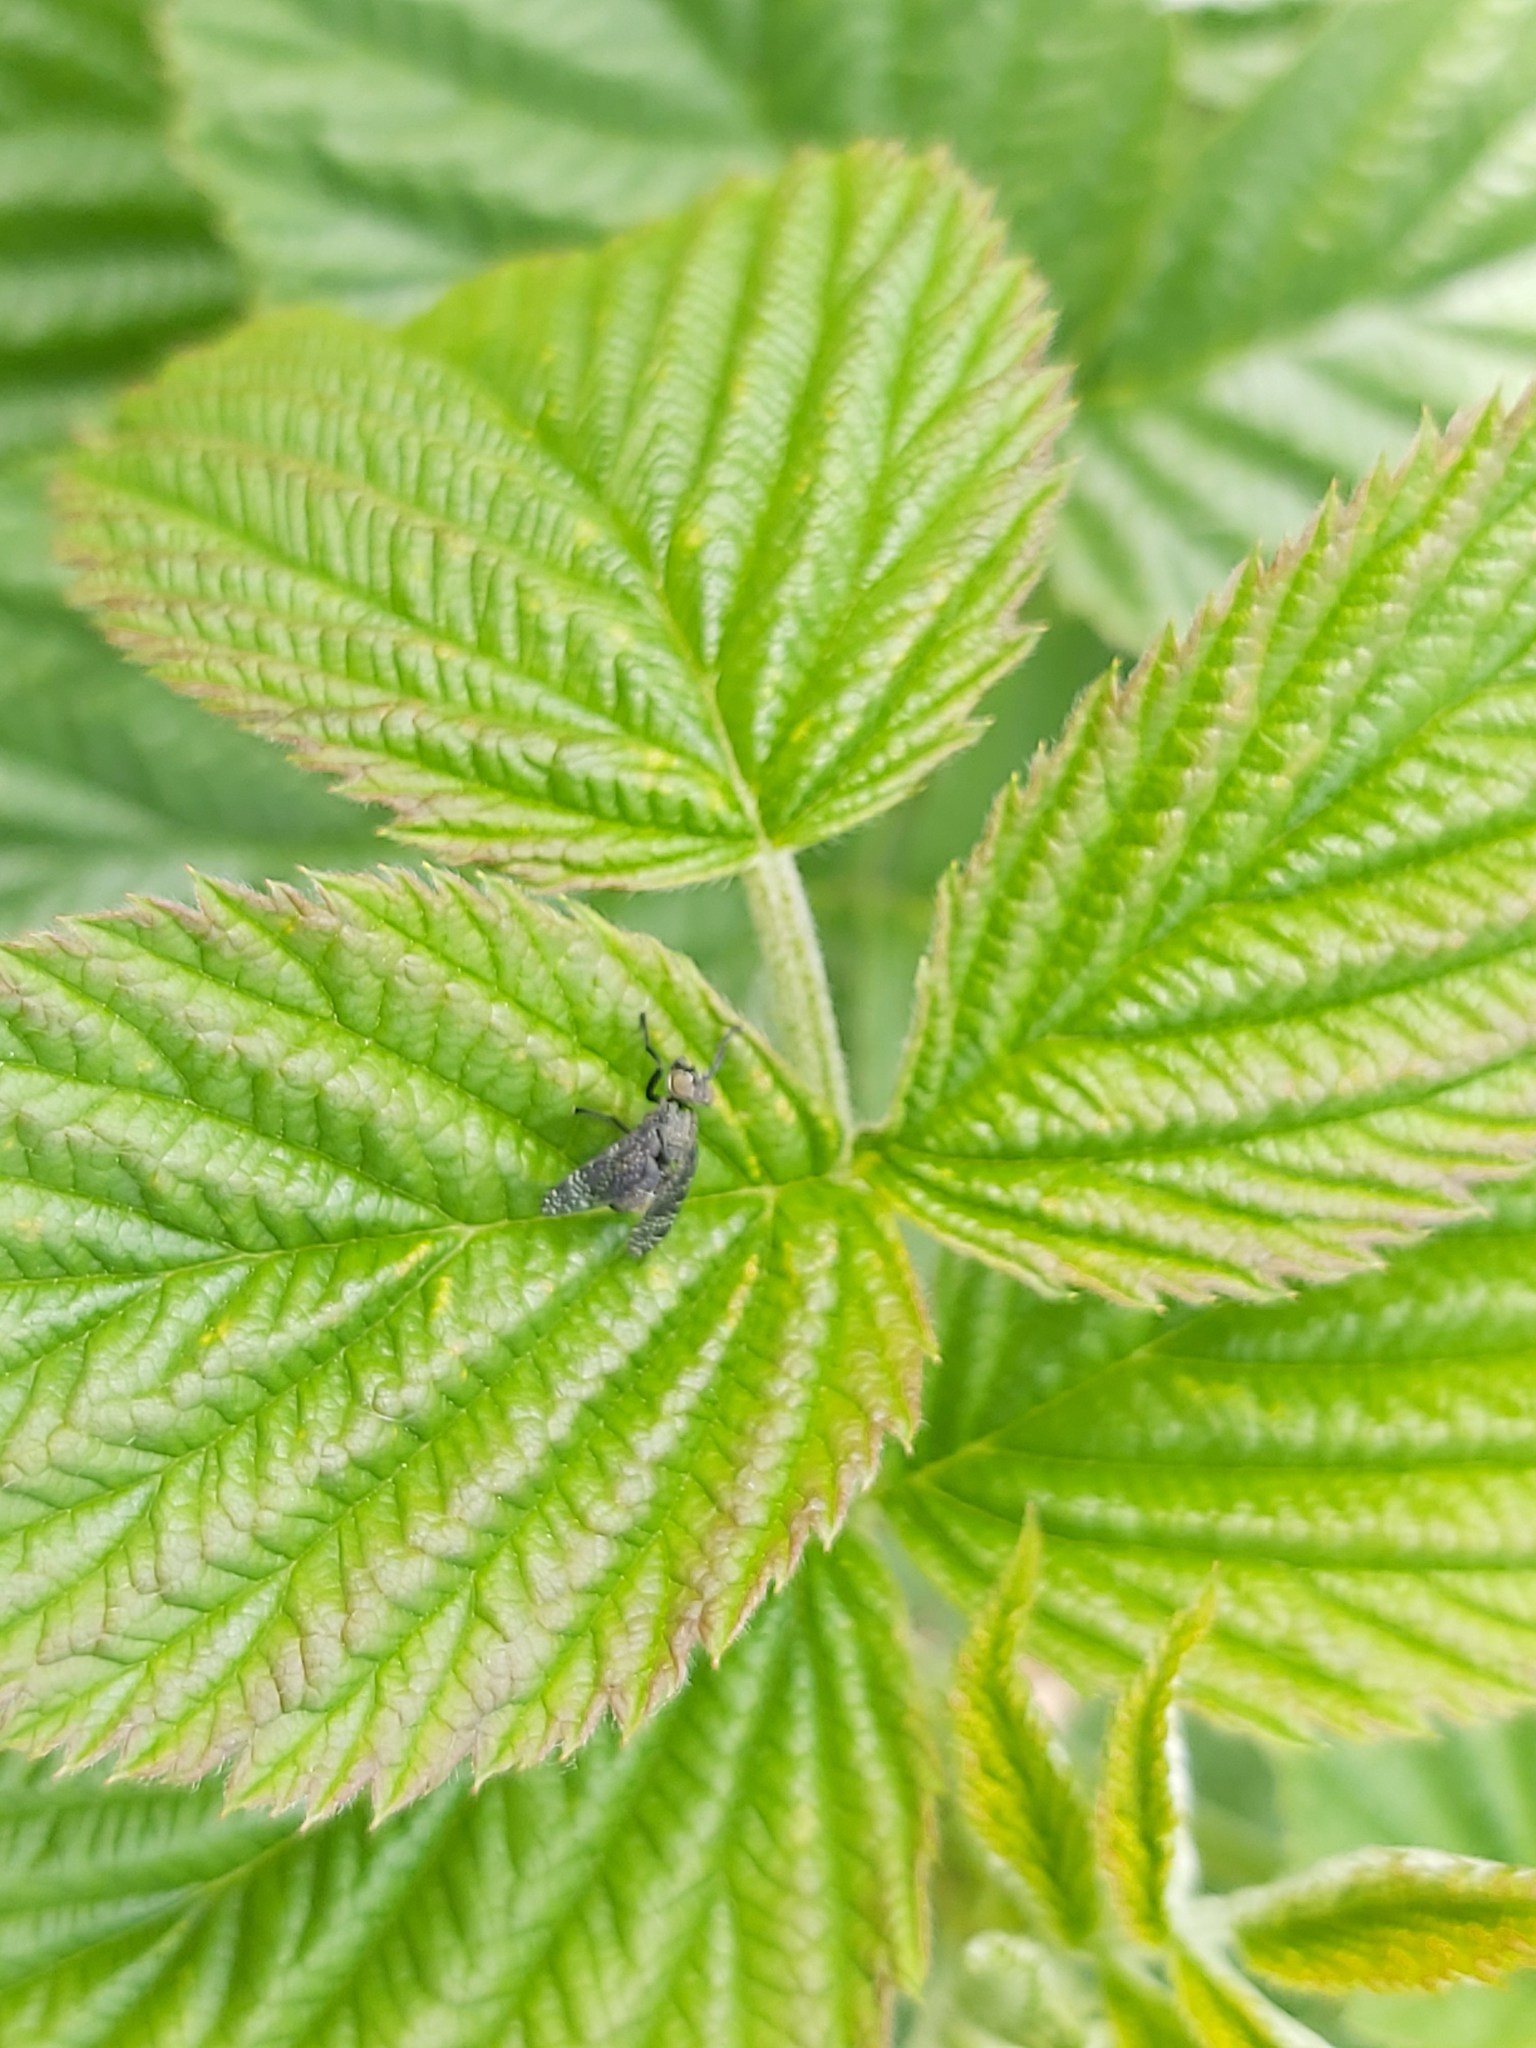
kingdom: Animalia
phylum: Arthropoda
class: Insecta
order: Diptera
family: Platystomatidae
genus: Platystoma
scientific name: Platystoma seminationis
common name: Fly
